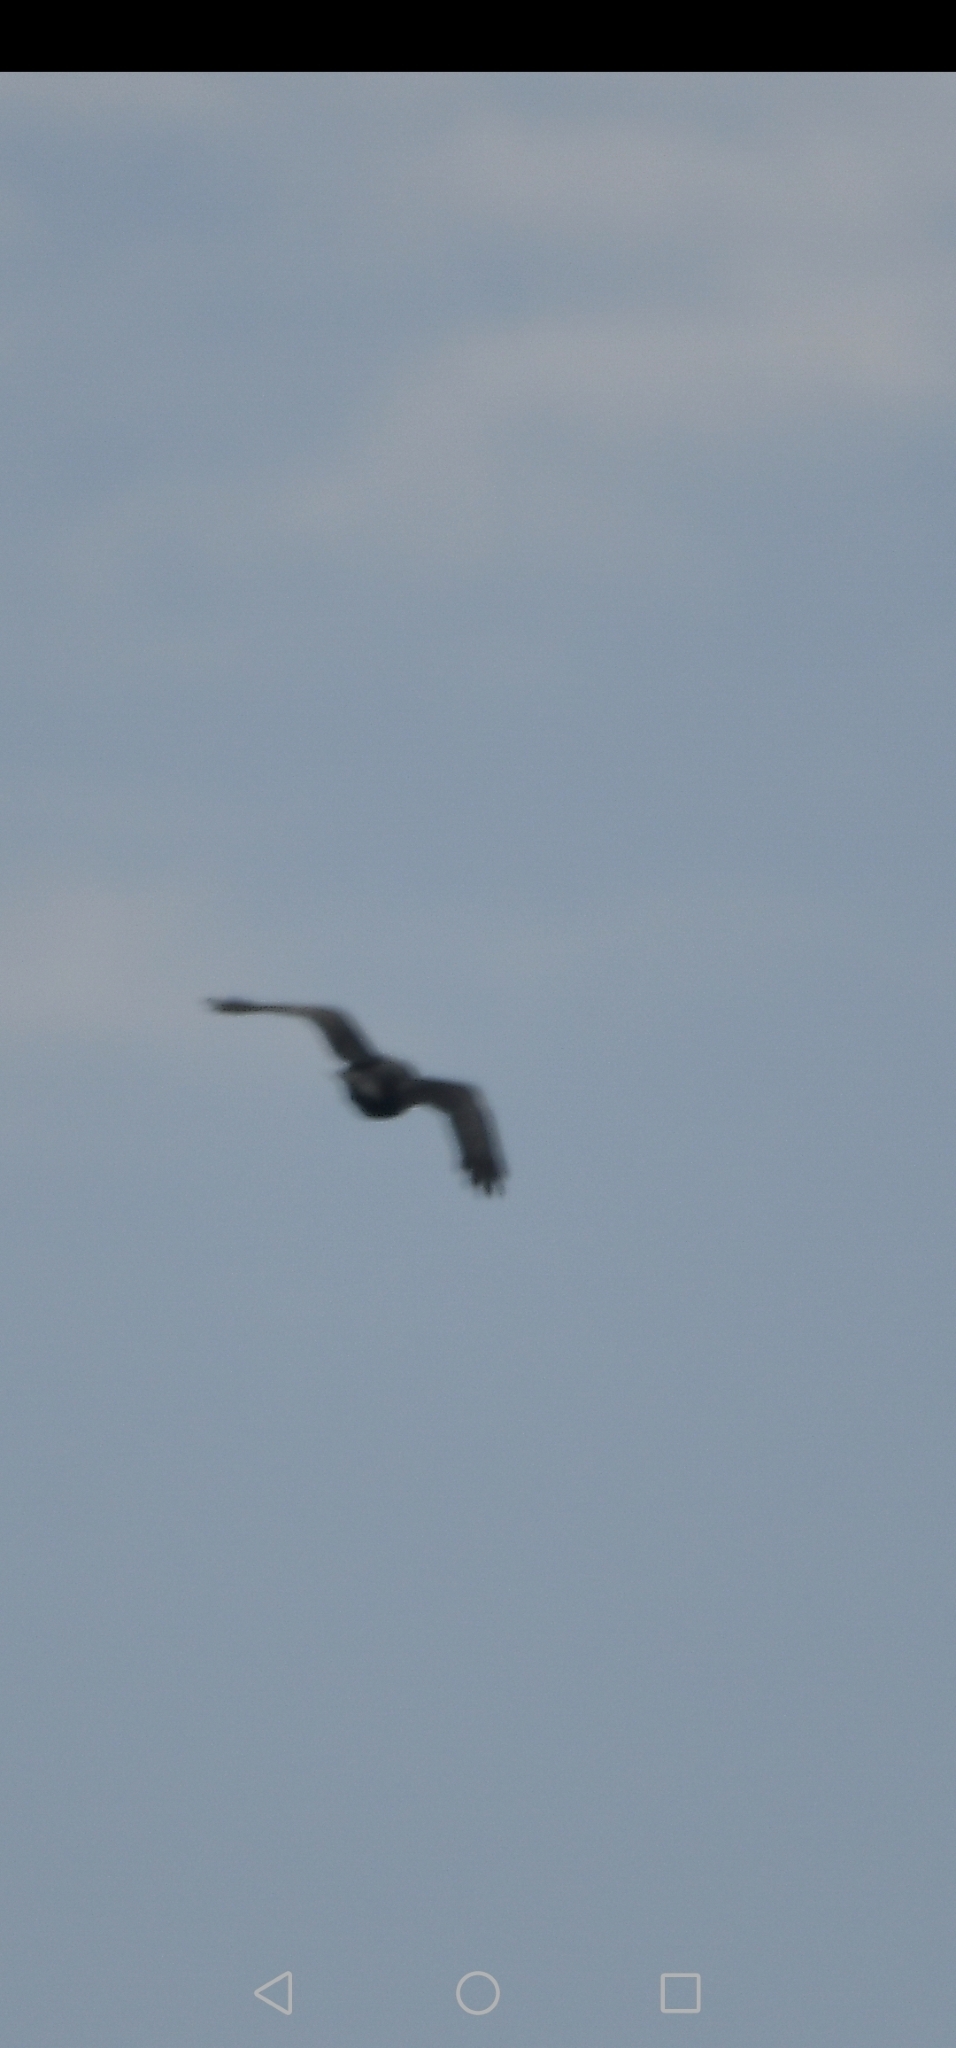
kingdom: Animalia
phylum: Chordata
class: Aves
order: Accipitriformes
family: Accipitridae
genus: Buteo
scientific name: Buteo jamaicensis
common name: Red-tailed hawk
